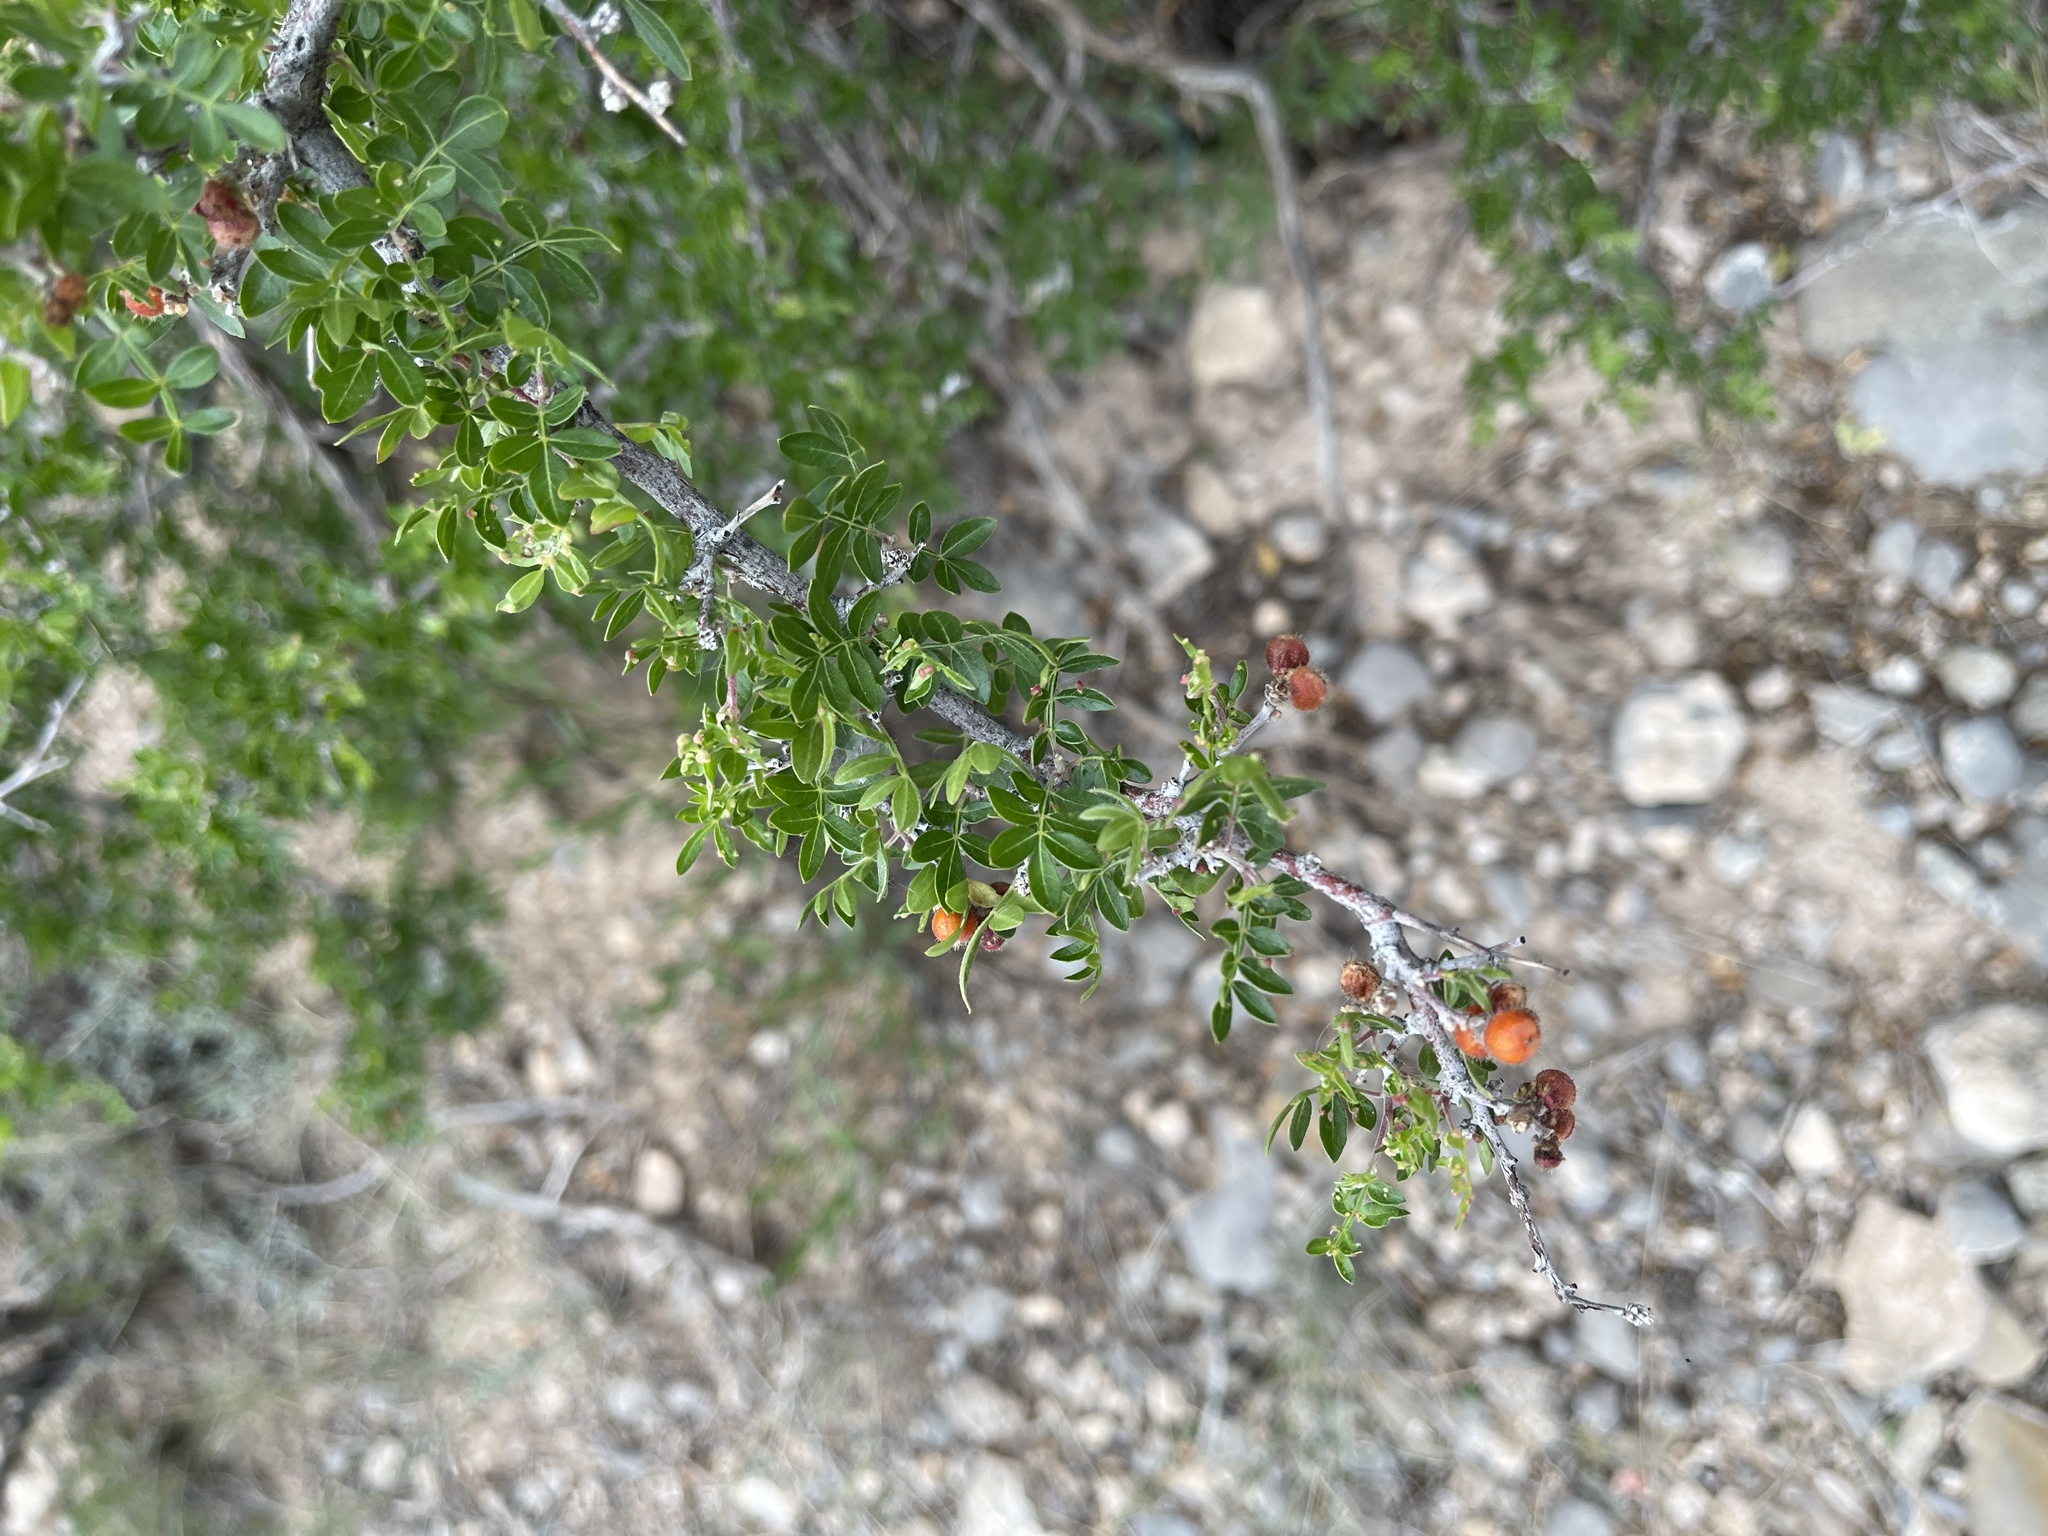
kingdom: Plantae
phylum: Tracheophyta
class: Magnoliopsida
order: Sapindales
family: Anacardiaceae
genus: Rhus
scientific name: Rhus microphylla
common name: Desert sumac
